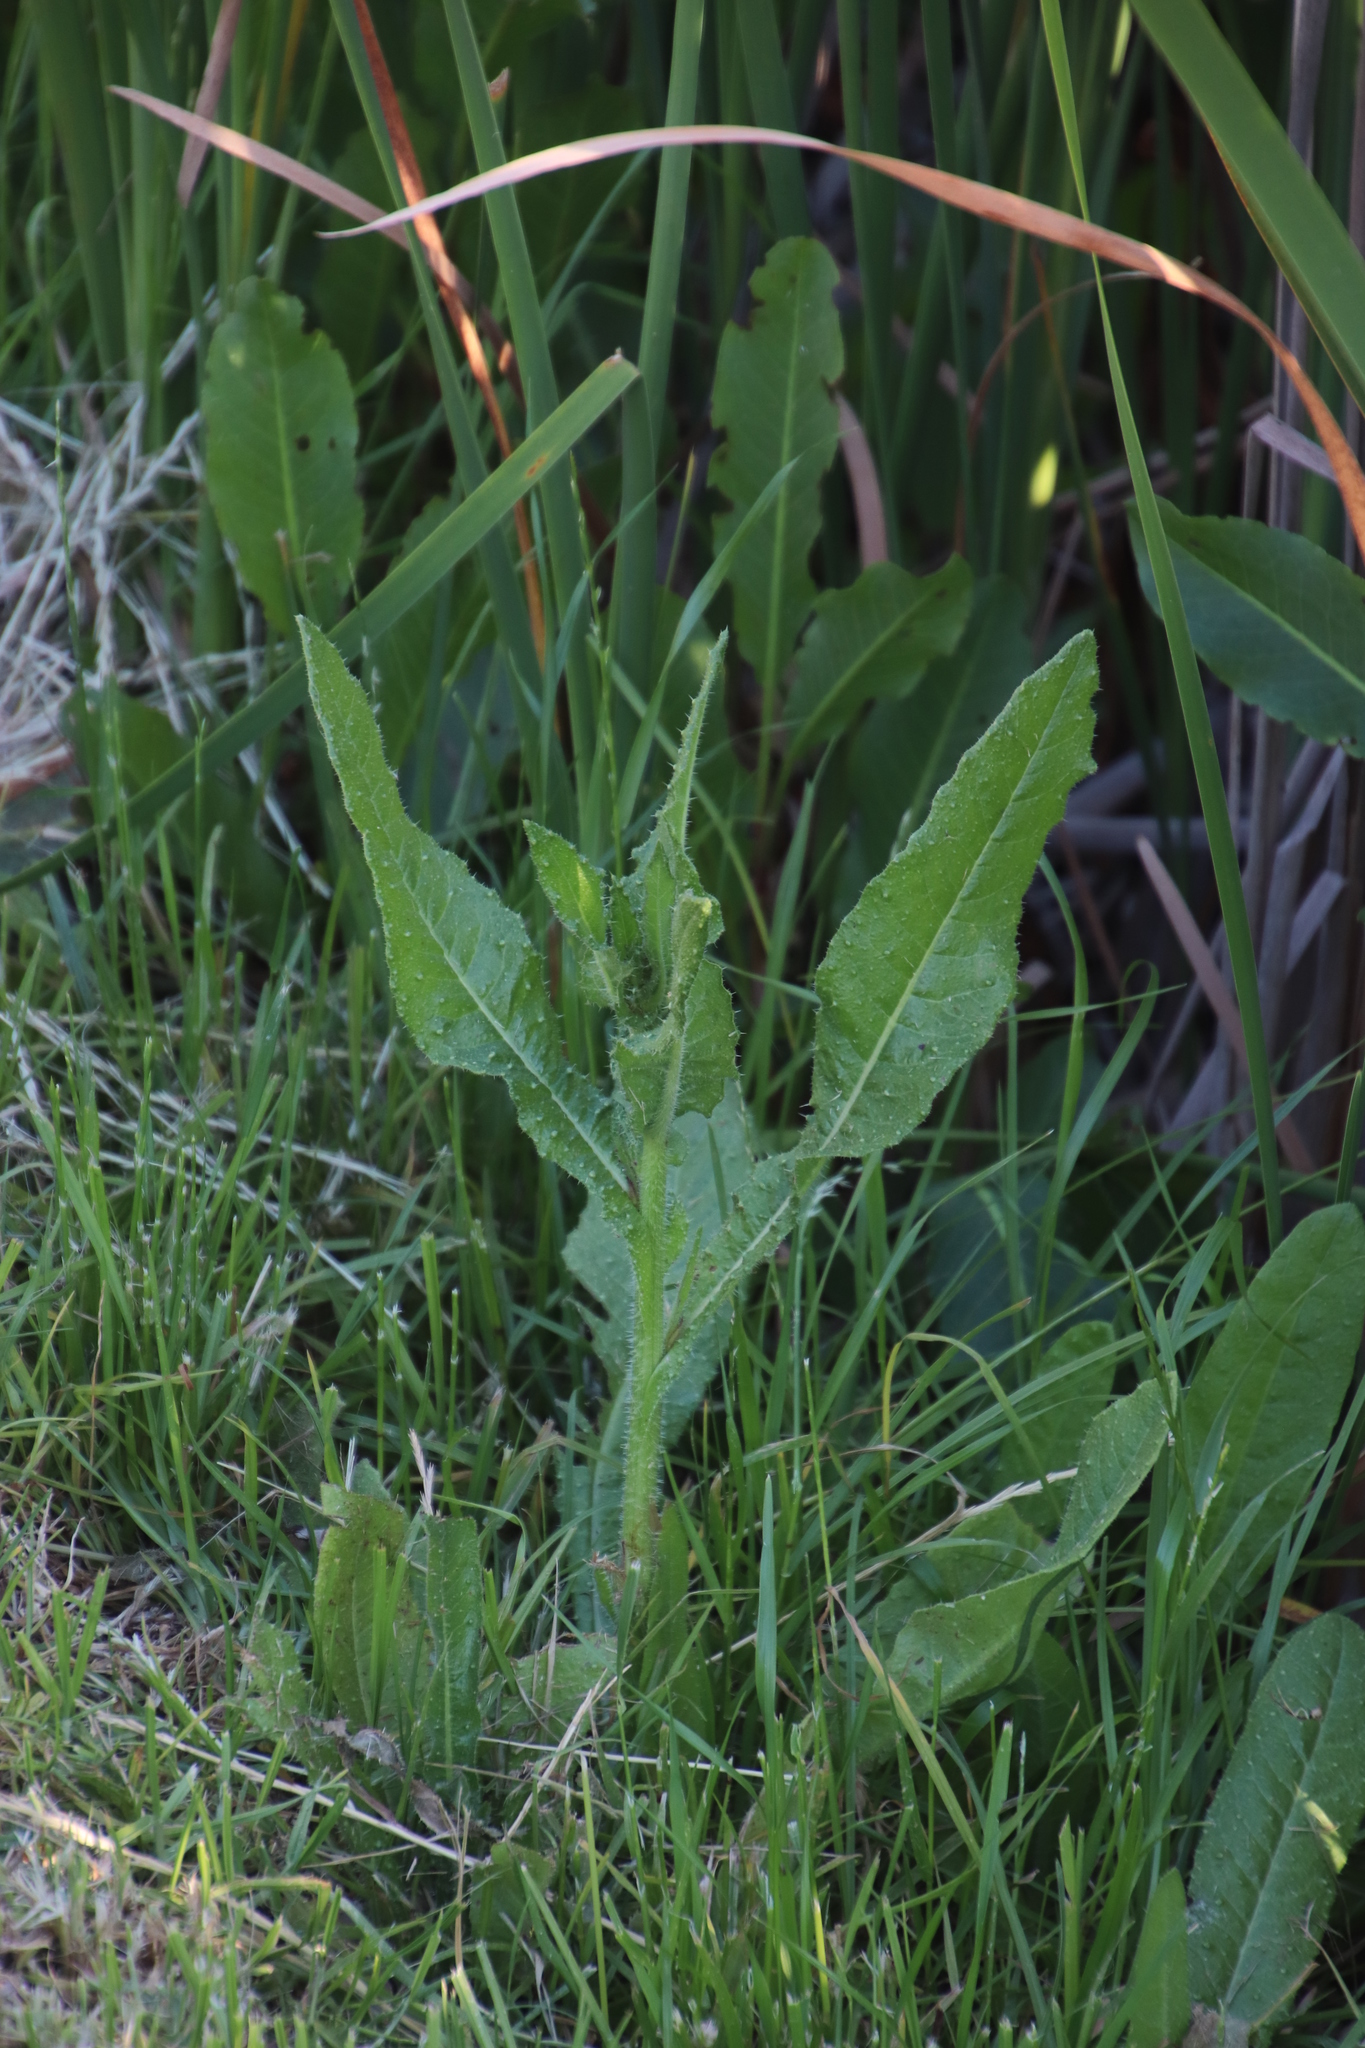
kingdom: Plantae
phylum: Tracheophyta
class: Magnoliopsida
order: Asterales
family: Asteraceae
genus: Helminthotheca
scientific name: Helminthotheca echioides
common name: Ox-tongue
